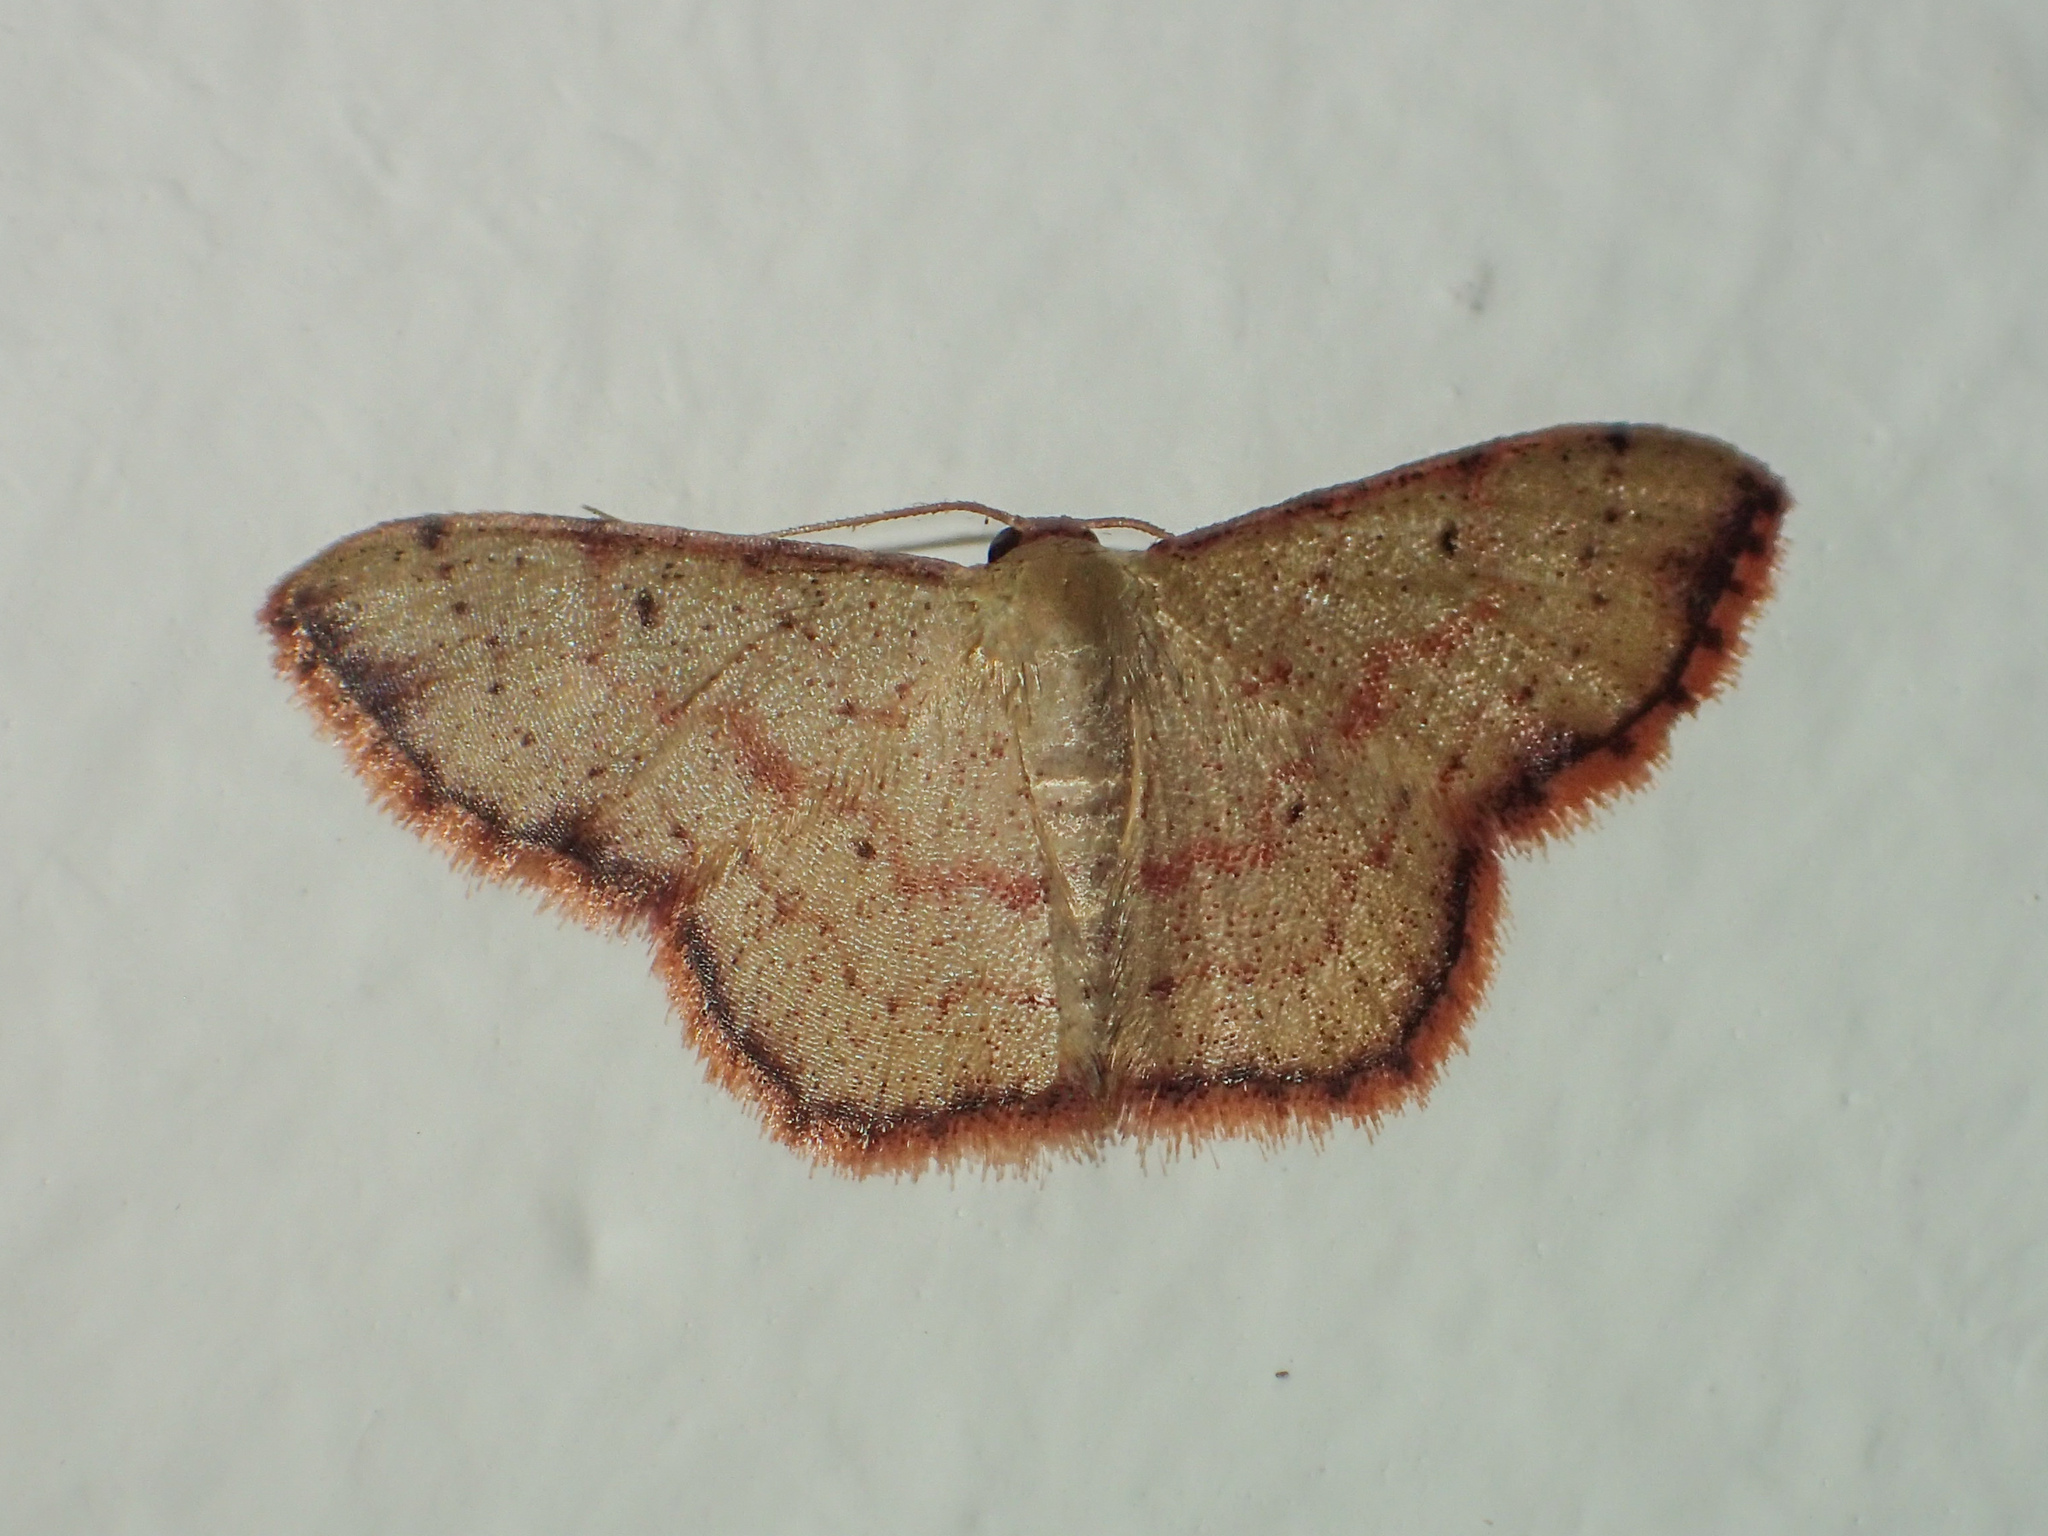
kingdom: Animalia
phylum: Arthropoda
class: Insecta
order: Lepidoptera
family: Geometridae
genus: Idaea
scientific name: Idaea craspedota
